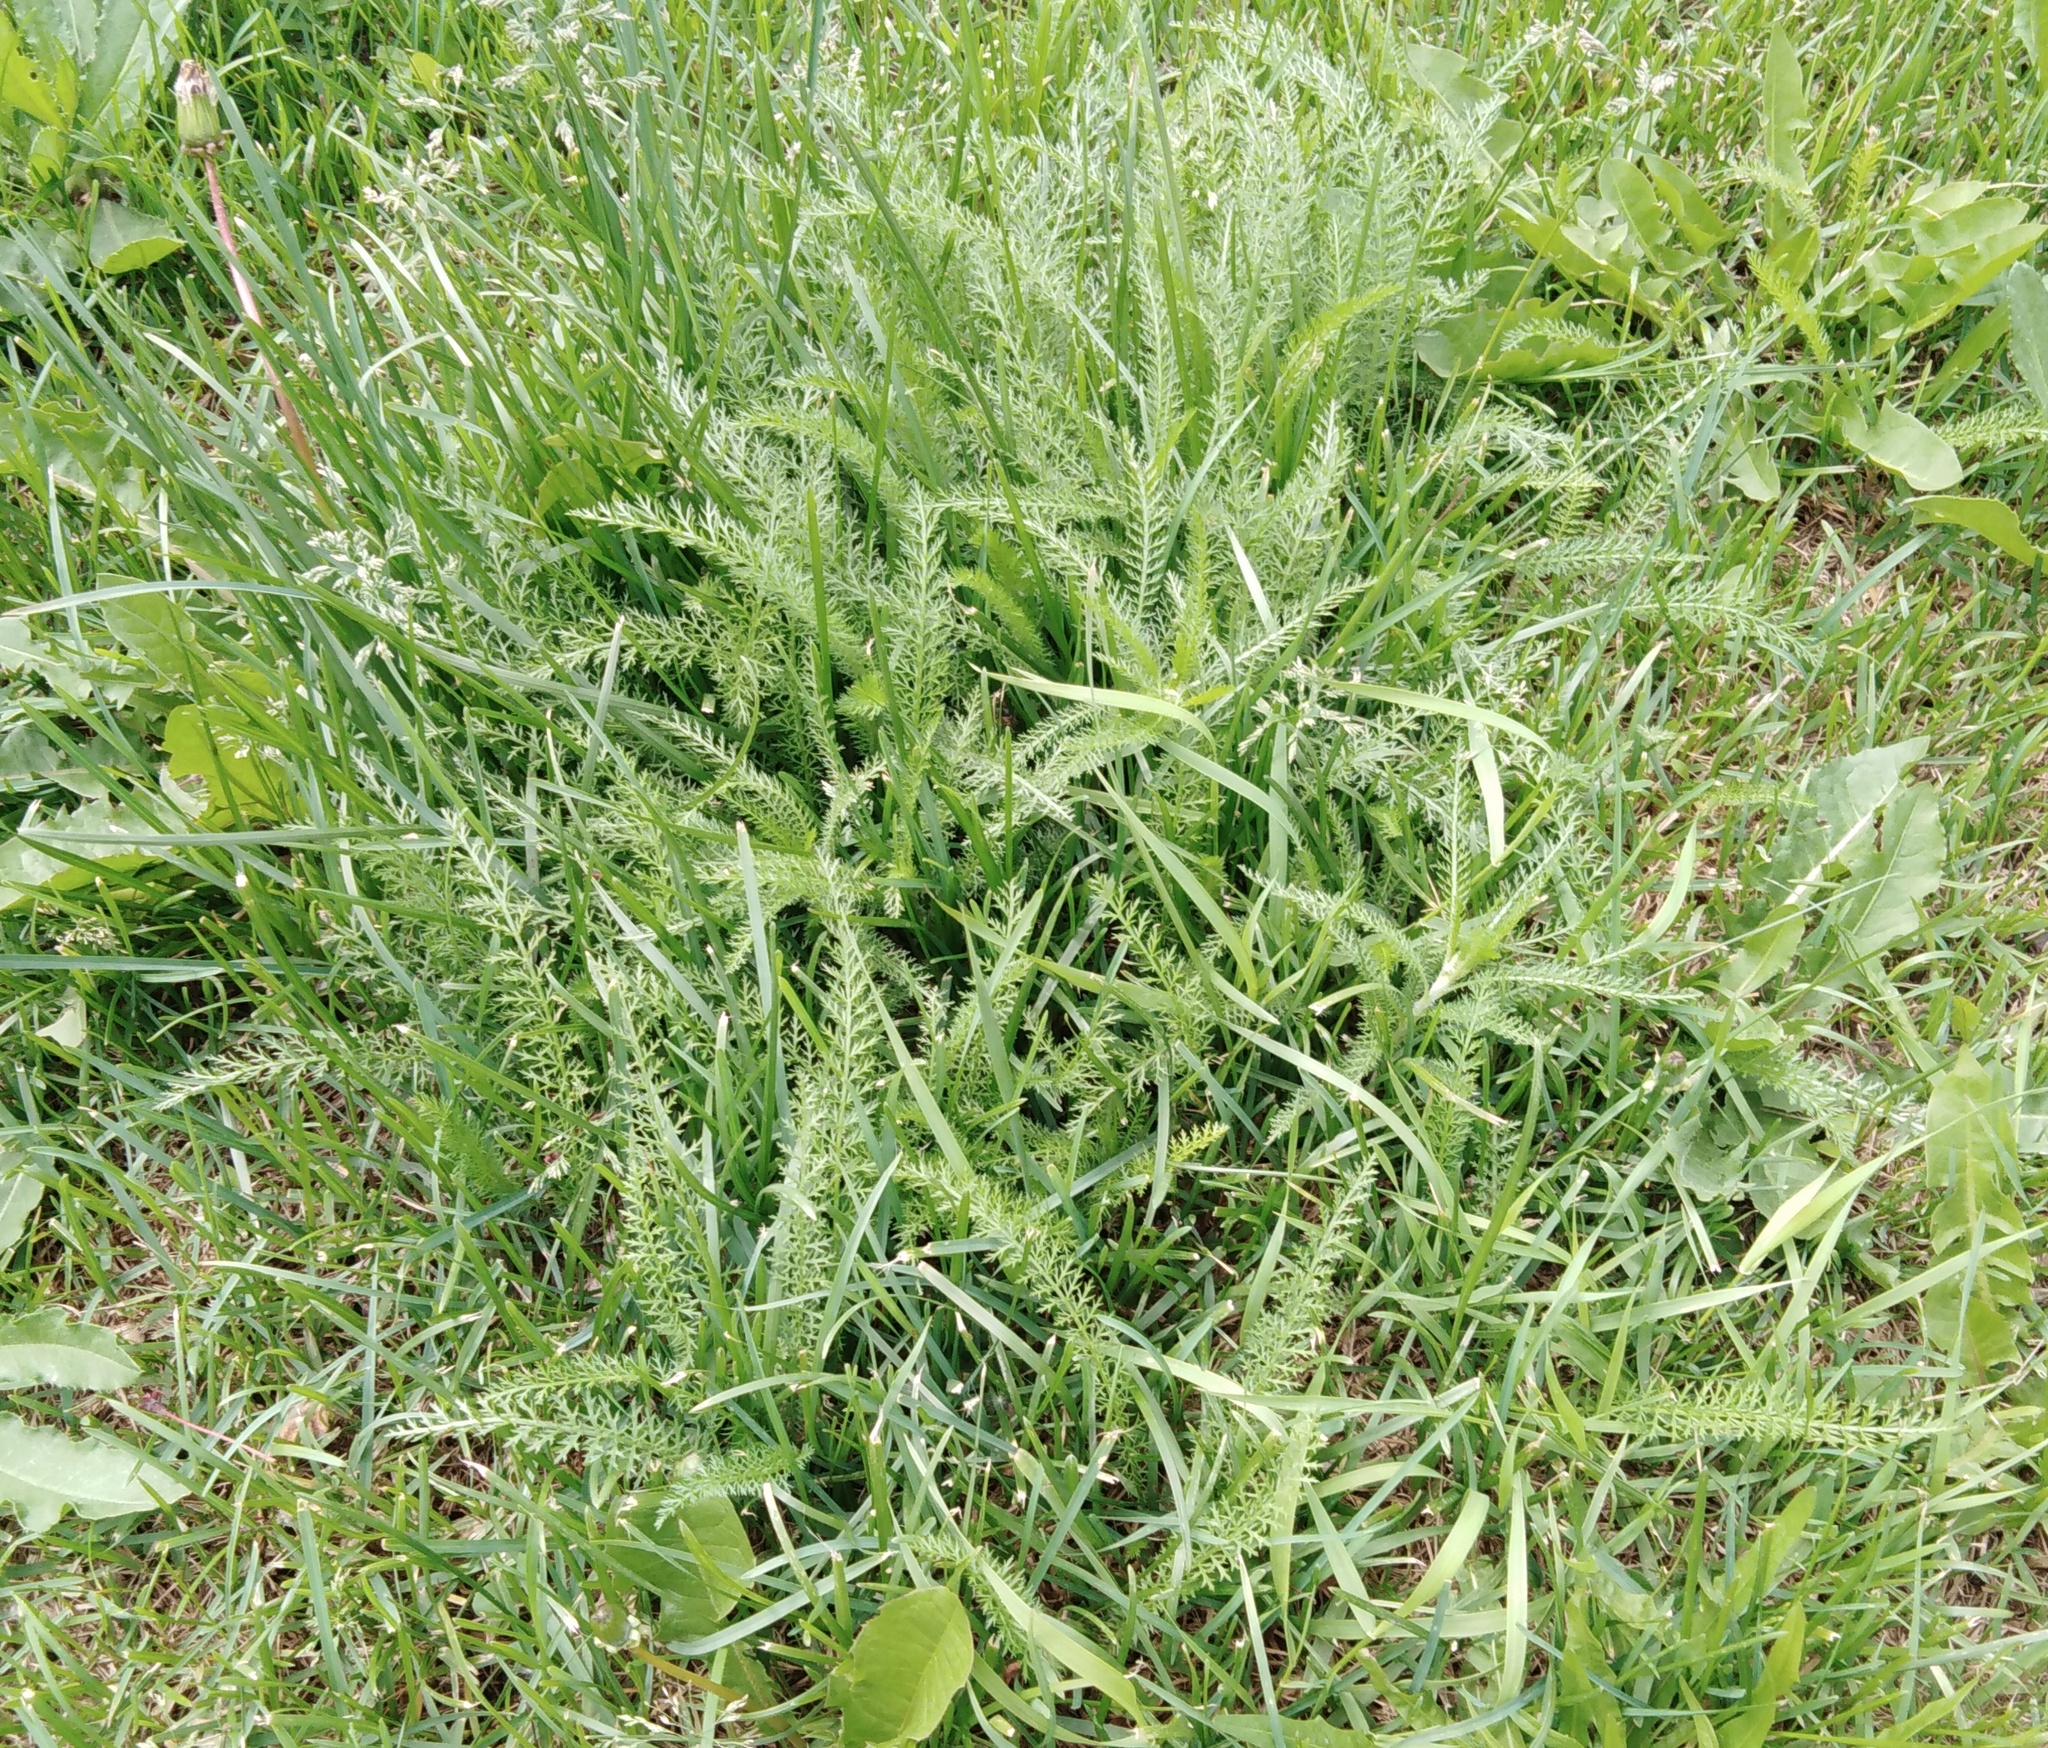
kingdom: Plantae
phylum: Tracheophyta
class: Magnoliopsida
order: Asterales
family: Asteraceae
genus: Achillea
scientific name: Achillea millefolium
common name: Yarrow
